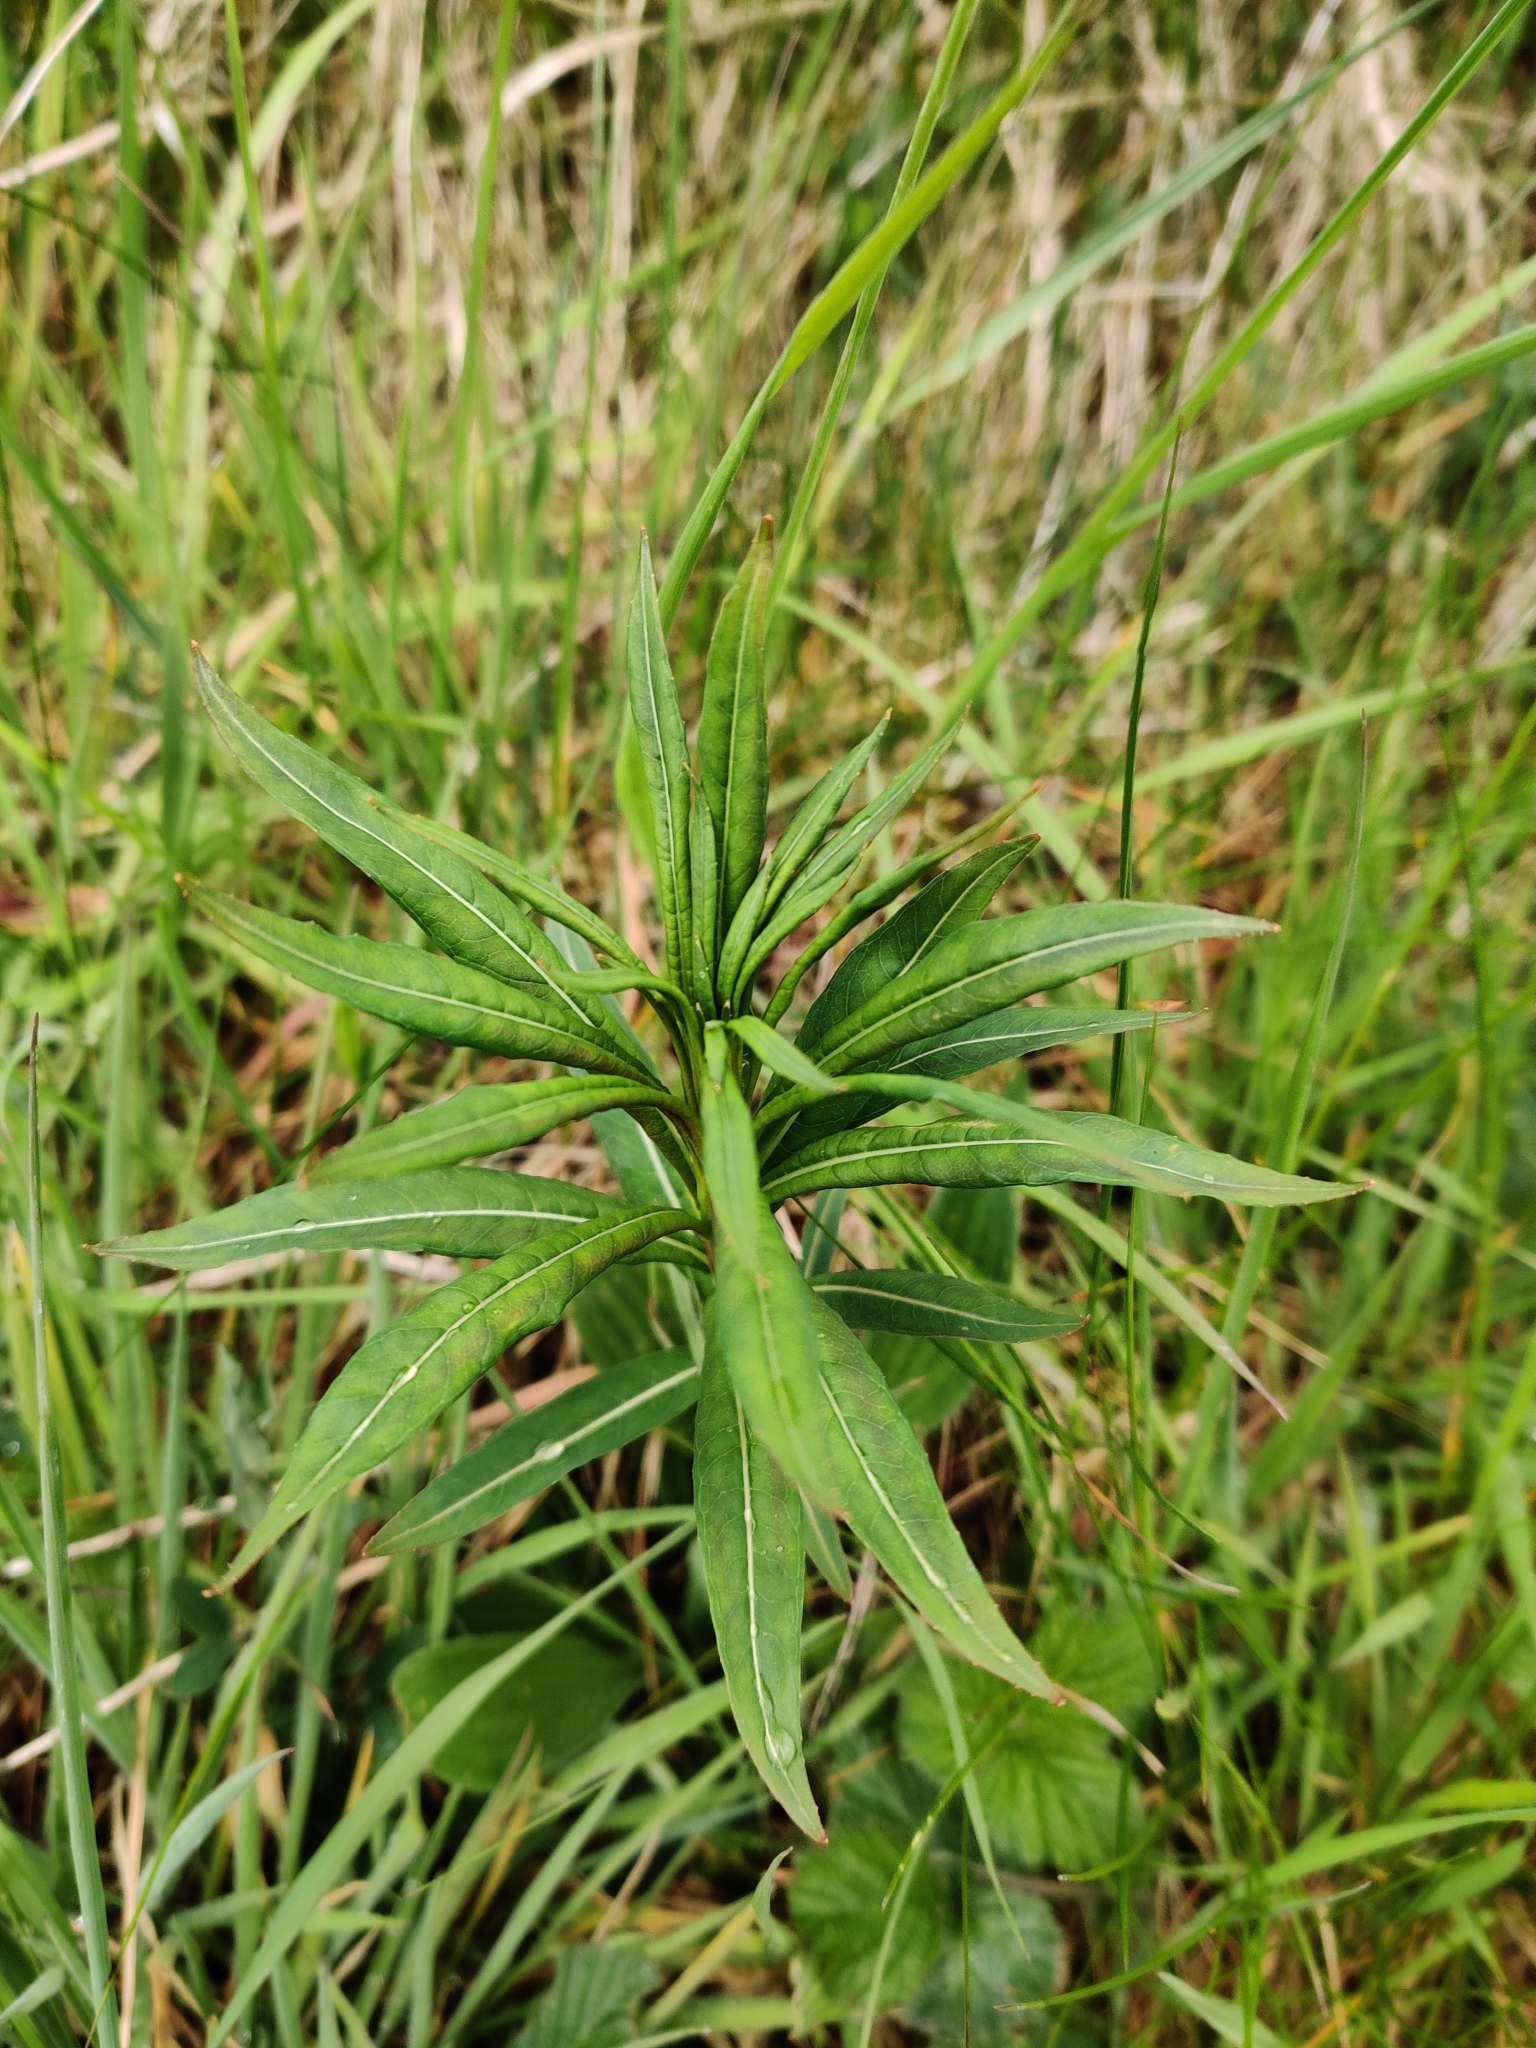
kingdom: Plantae
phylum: Tracheophyta
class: Magnoliopsida
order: Myrtales
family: Onagraceae
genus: Chamaenerion
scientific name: Chamaenerion angustifolium
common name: Fireweed
